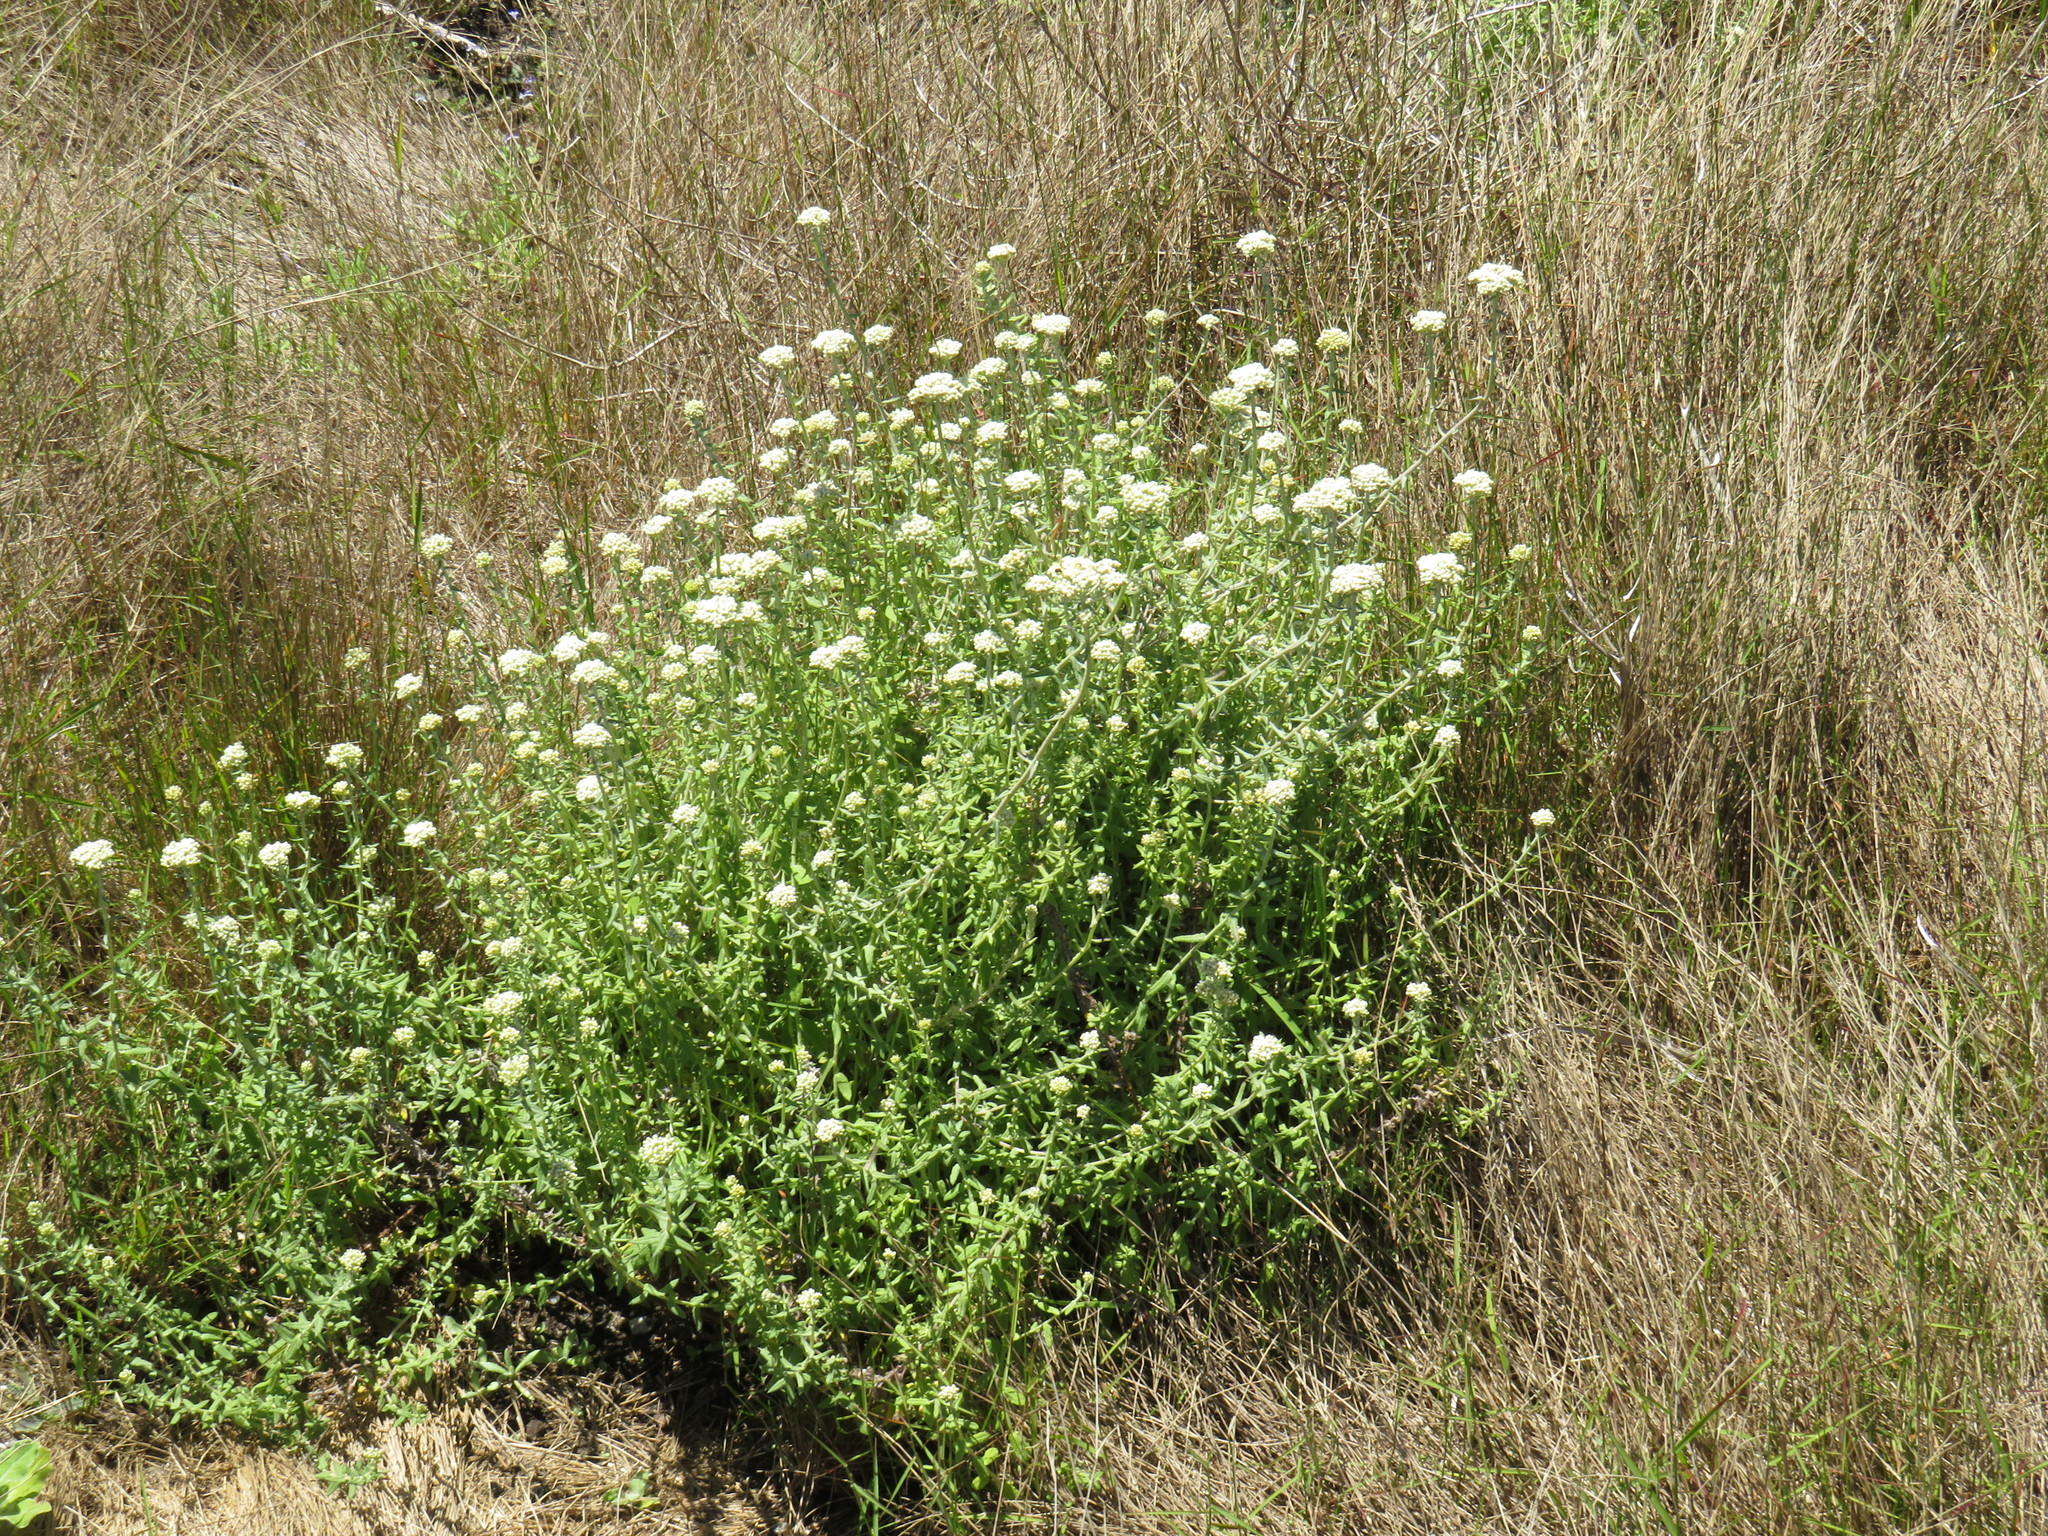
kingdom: Plantae
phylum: Tracheophyta
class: Magnoliopsida
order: Asterales
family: Asteraceae
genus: Helichrysum
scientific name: Helichrysum cymosum
